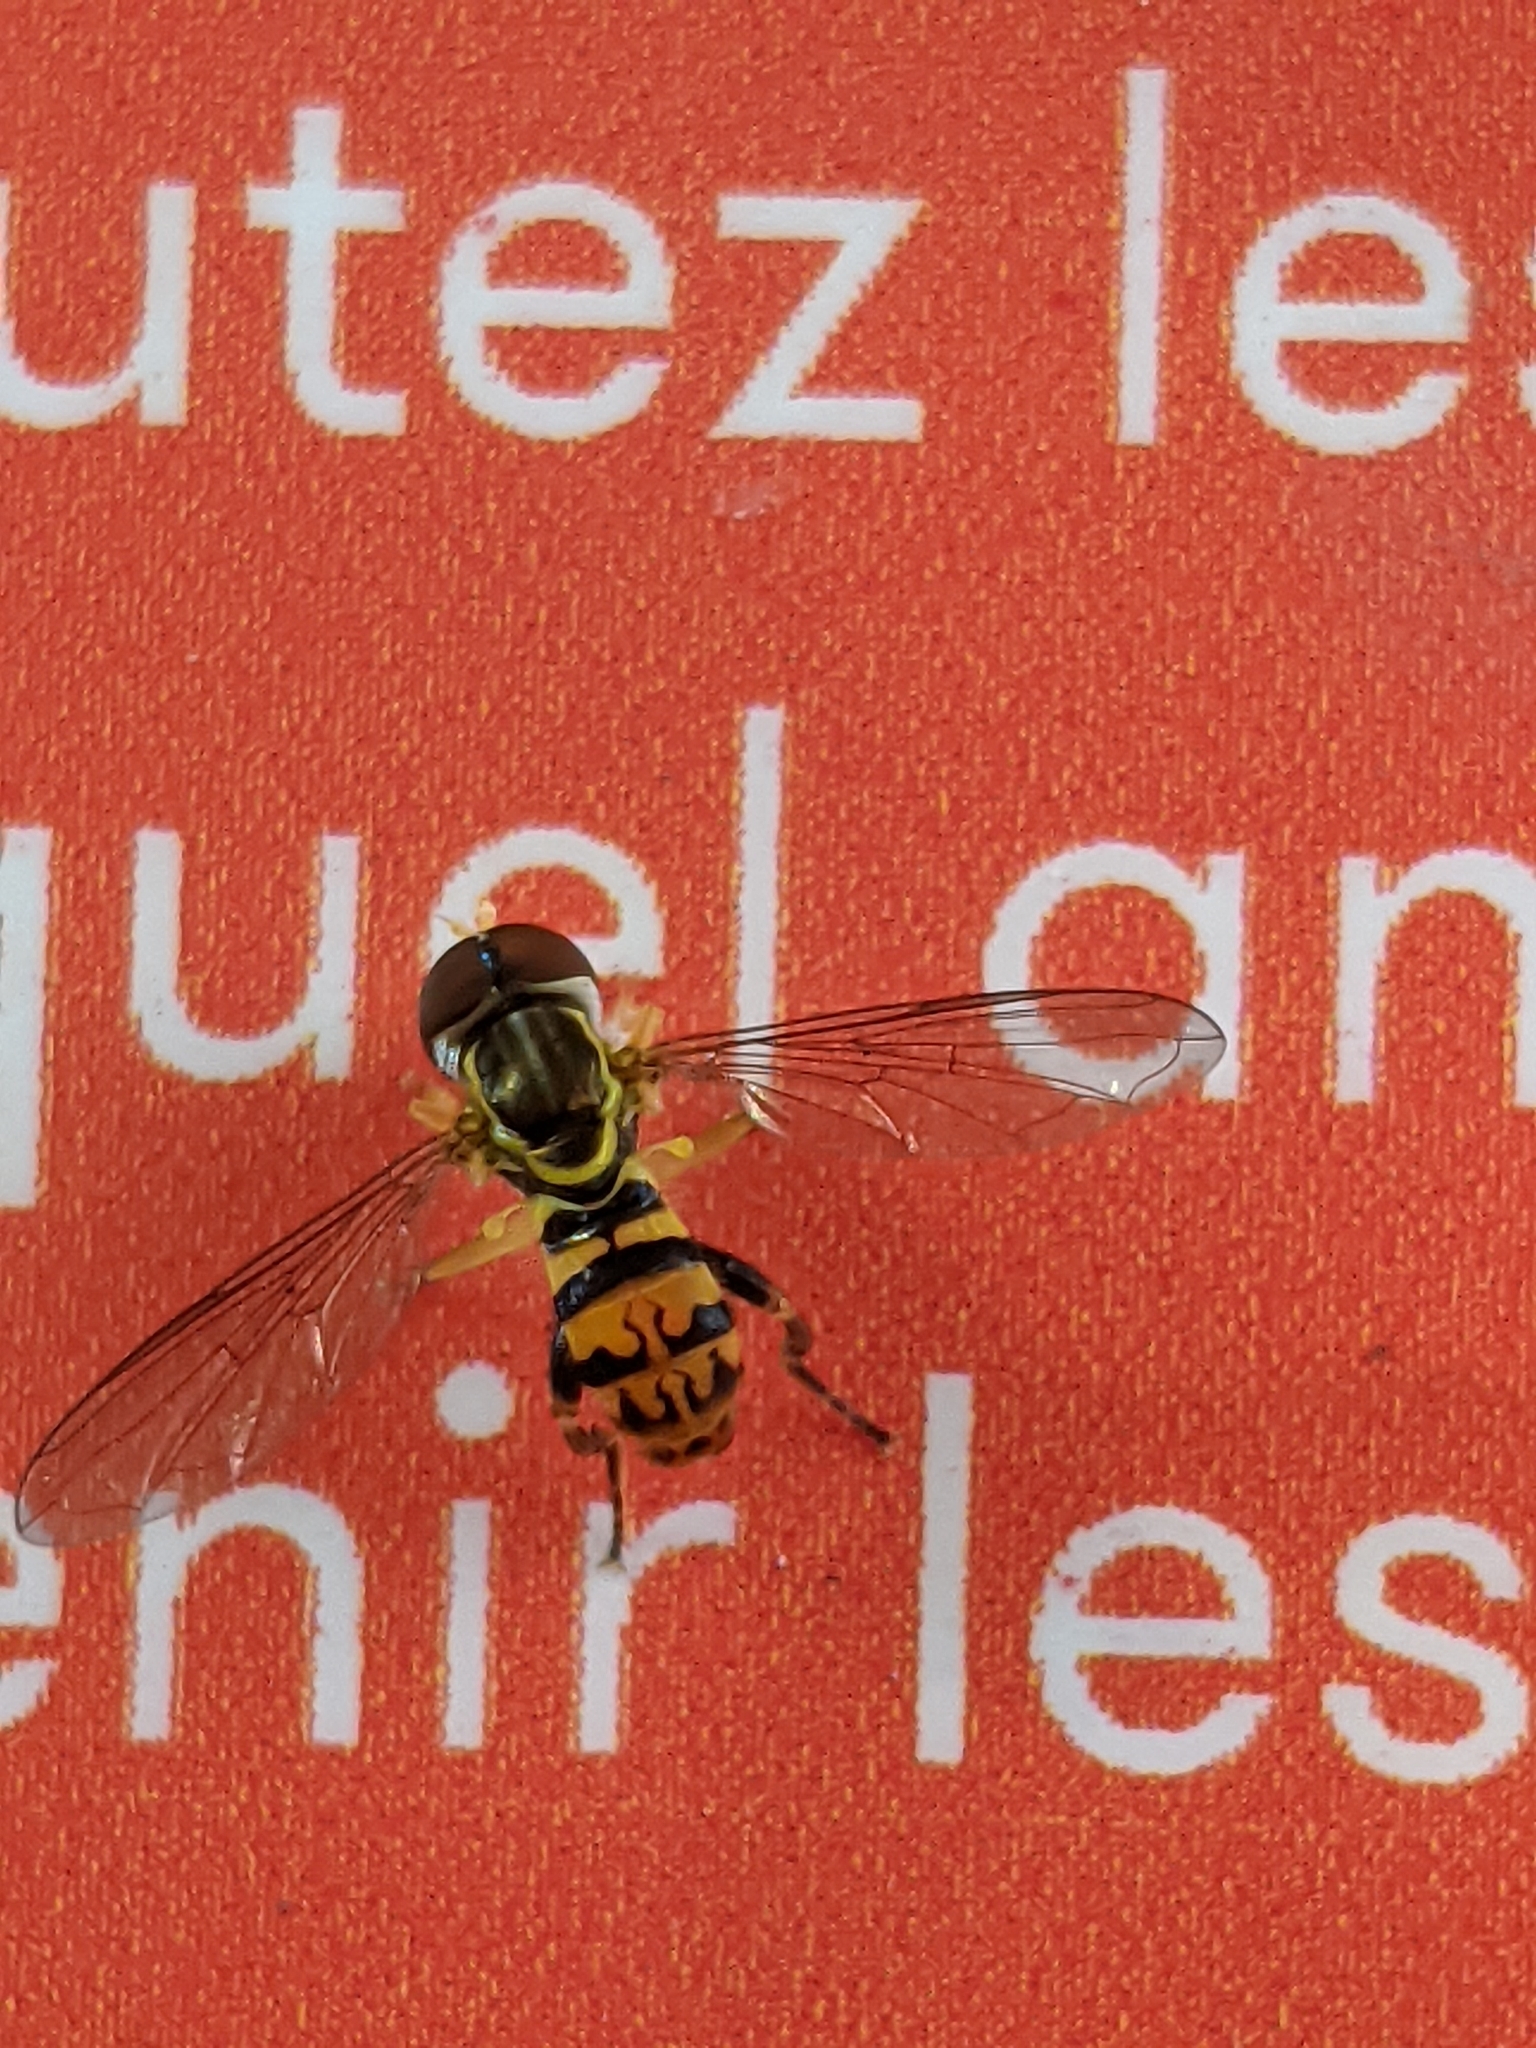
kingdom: Animalia
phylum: Arthropoda
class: Insecta
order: Diptera
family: Syrphidae
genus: Toxomerus
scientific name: Toxomerus geminatus
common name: Eastern calligrapher
